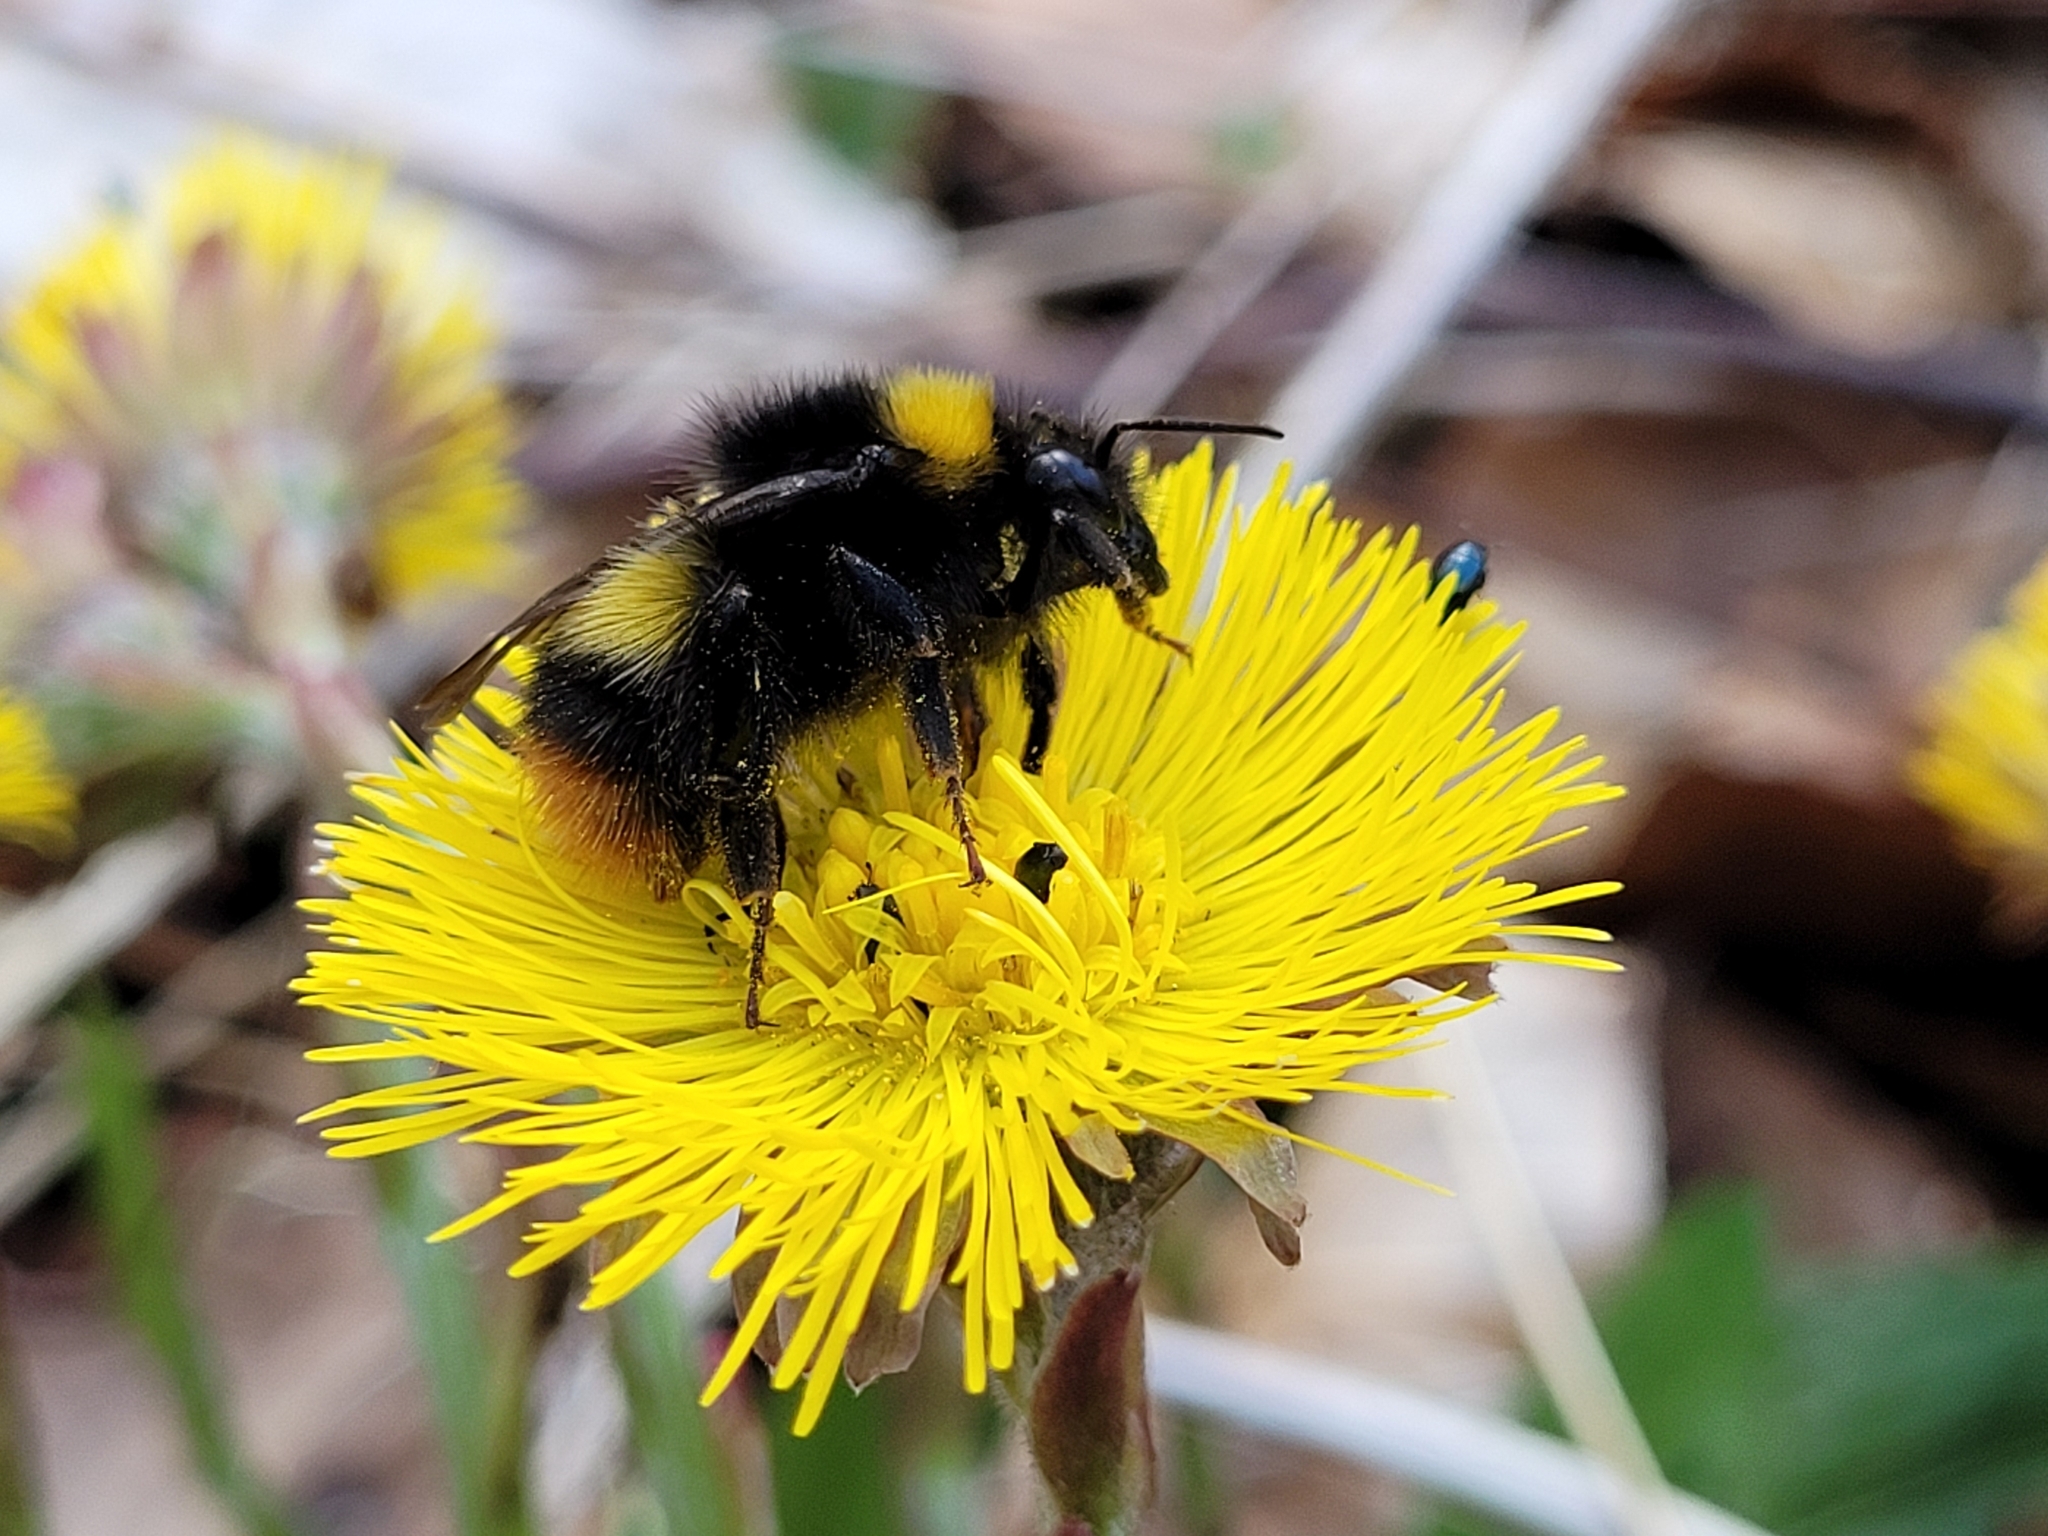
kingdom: Animalia
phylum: Arthropoda
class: Insecta
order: Hymenoptera
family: Apidae
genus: Bombus
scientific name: Bombus pratorum
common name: Early humble-bee
